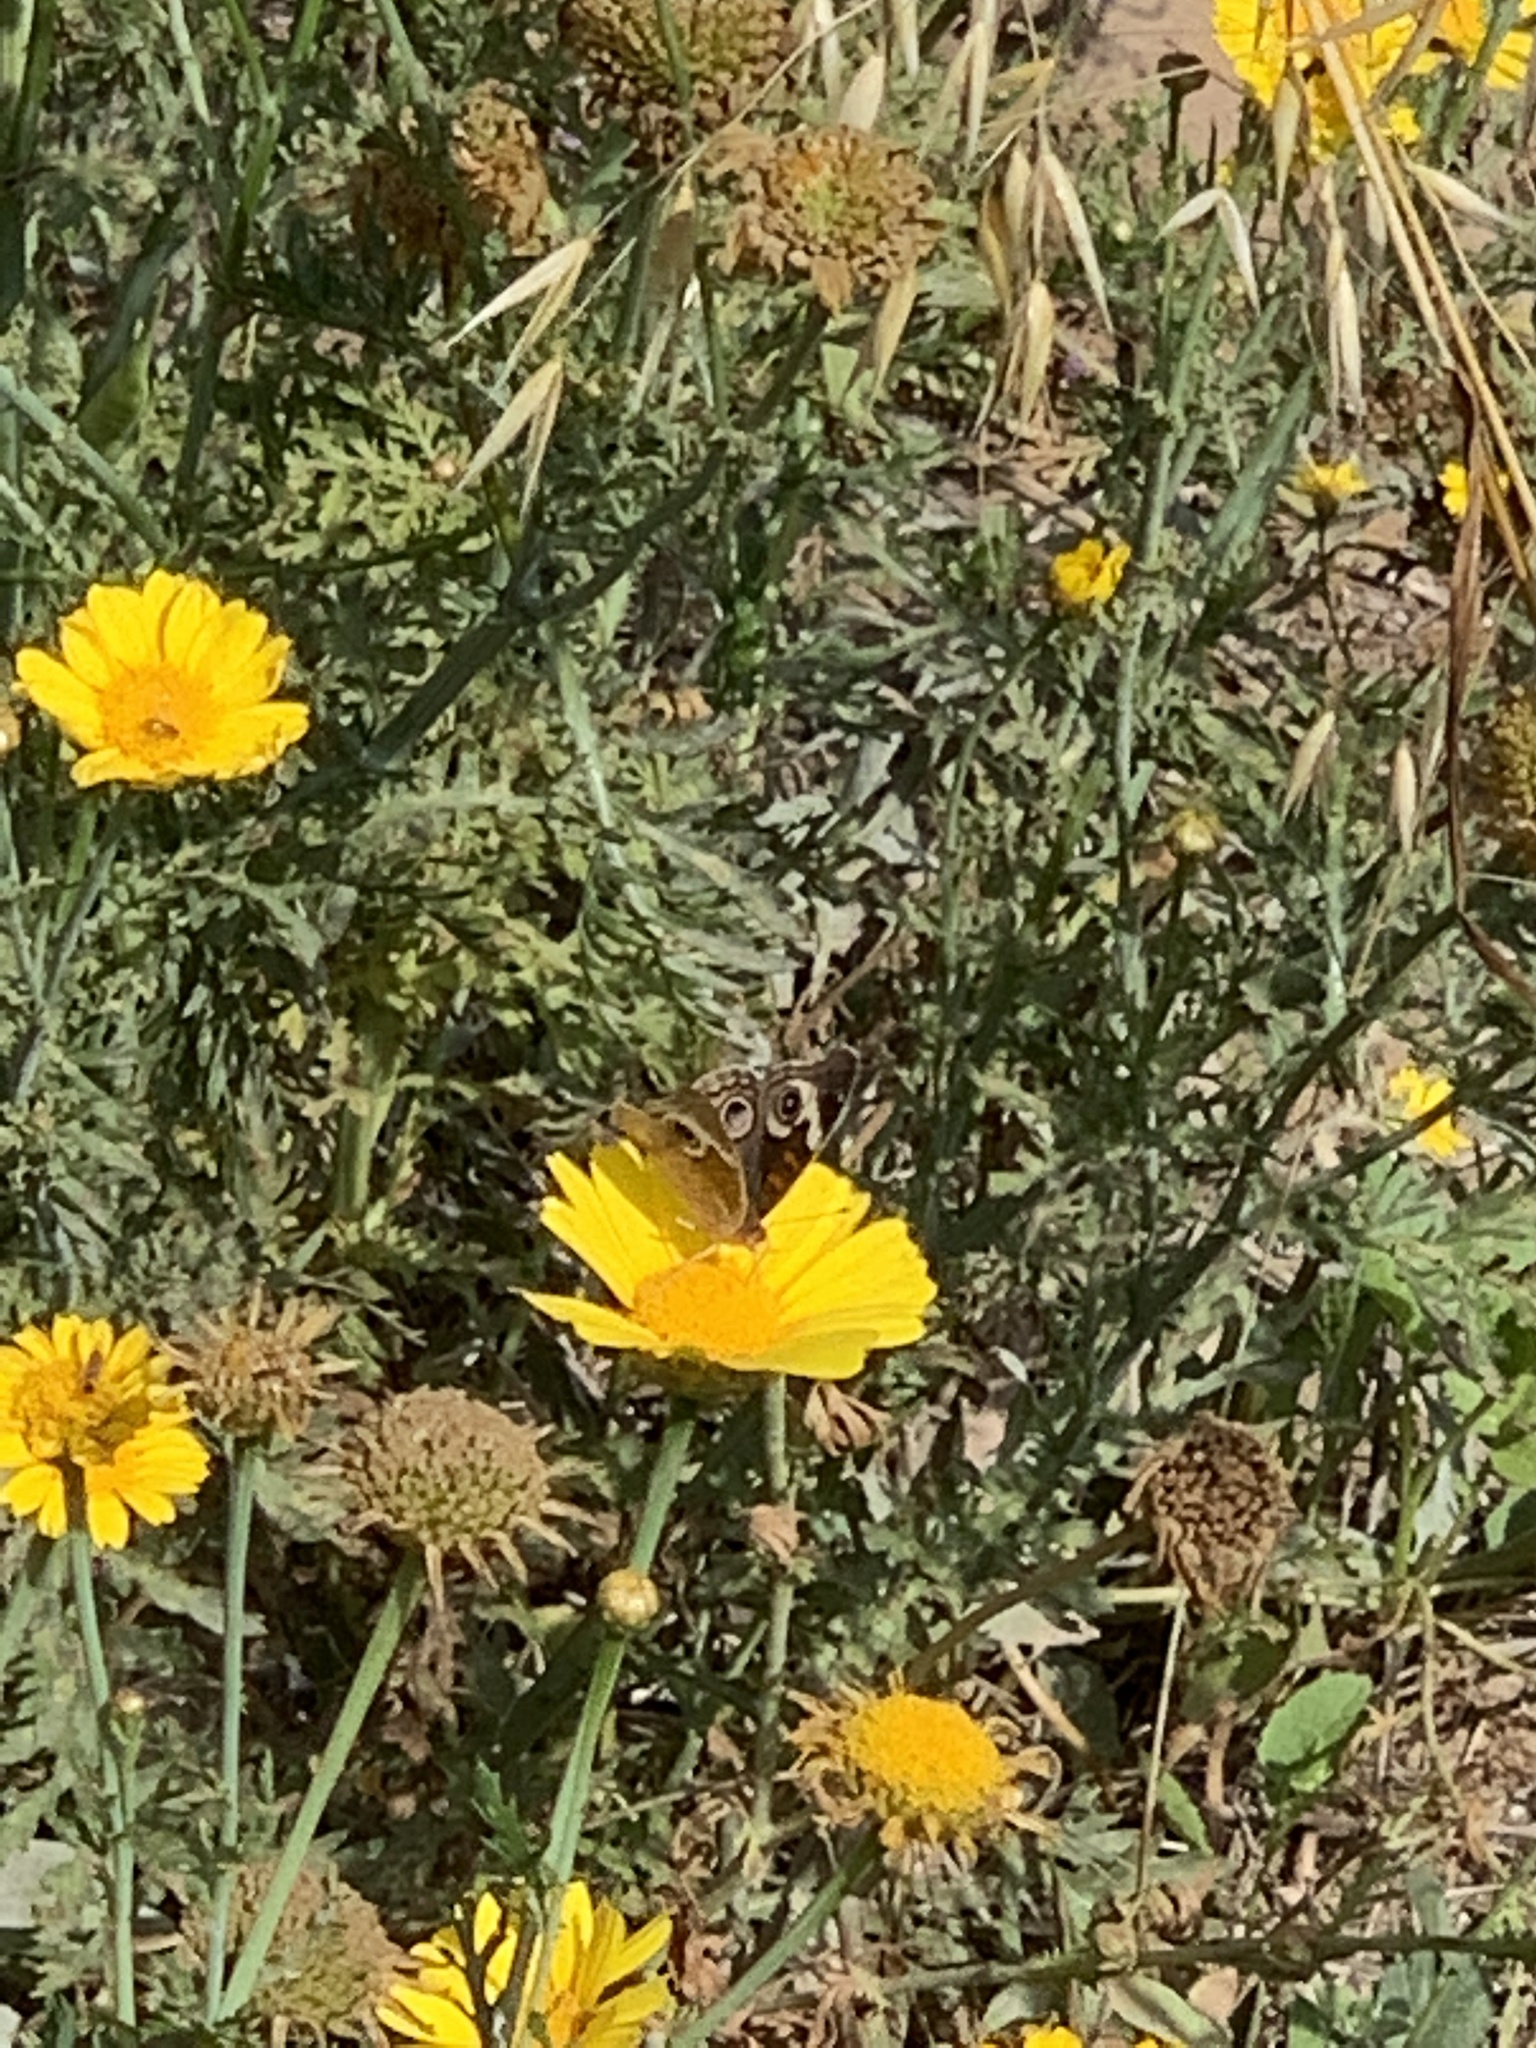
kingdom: Animalia
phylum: Arthropoda
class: Insecta
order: Lepidoptera
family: Nymphalidae
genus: Junonia
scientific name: Junonia grisea
